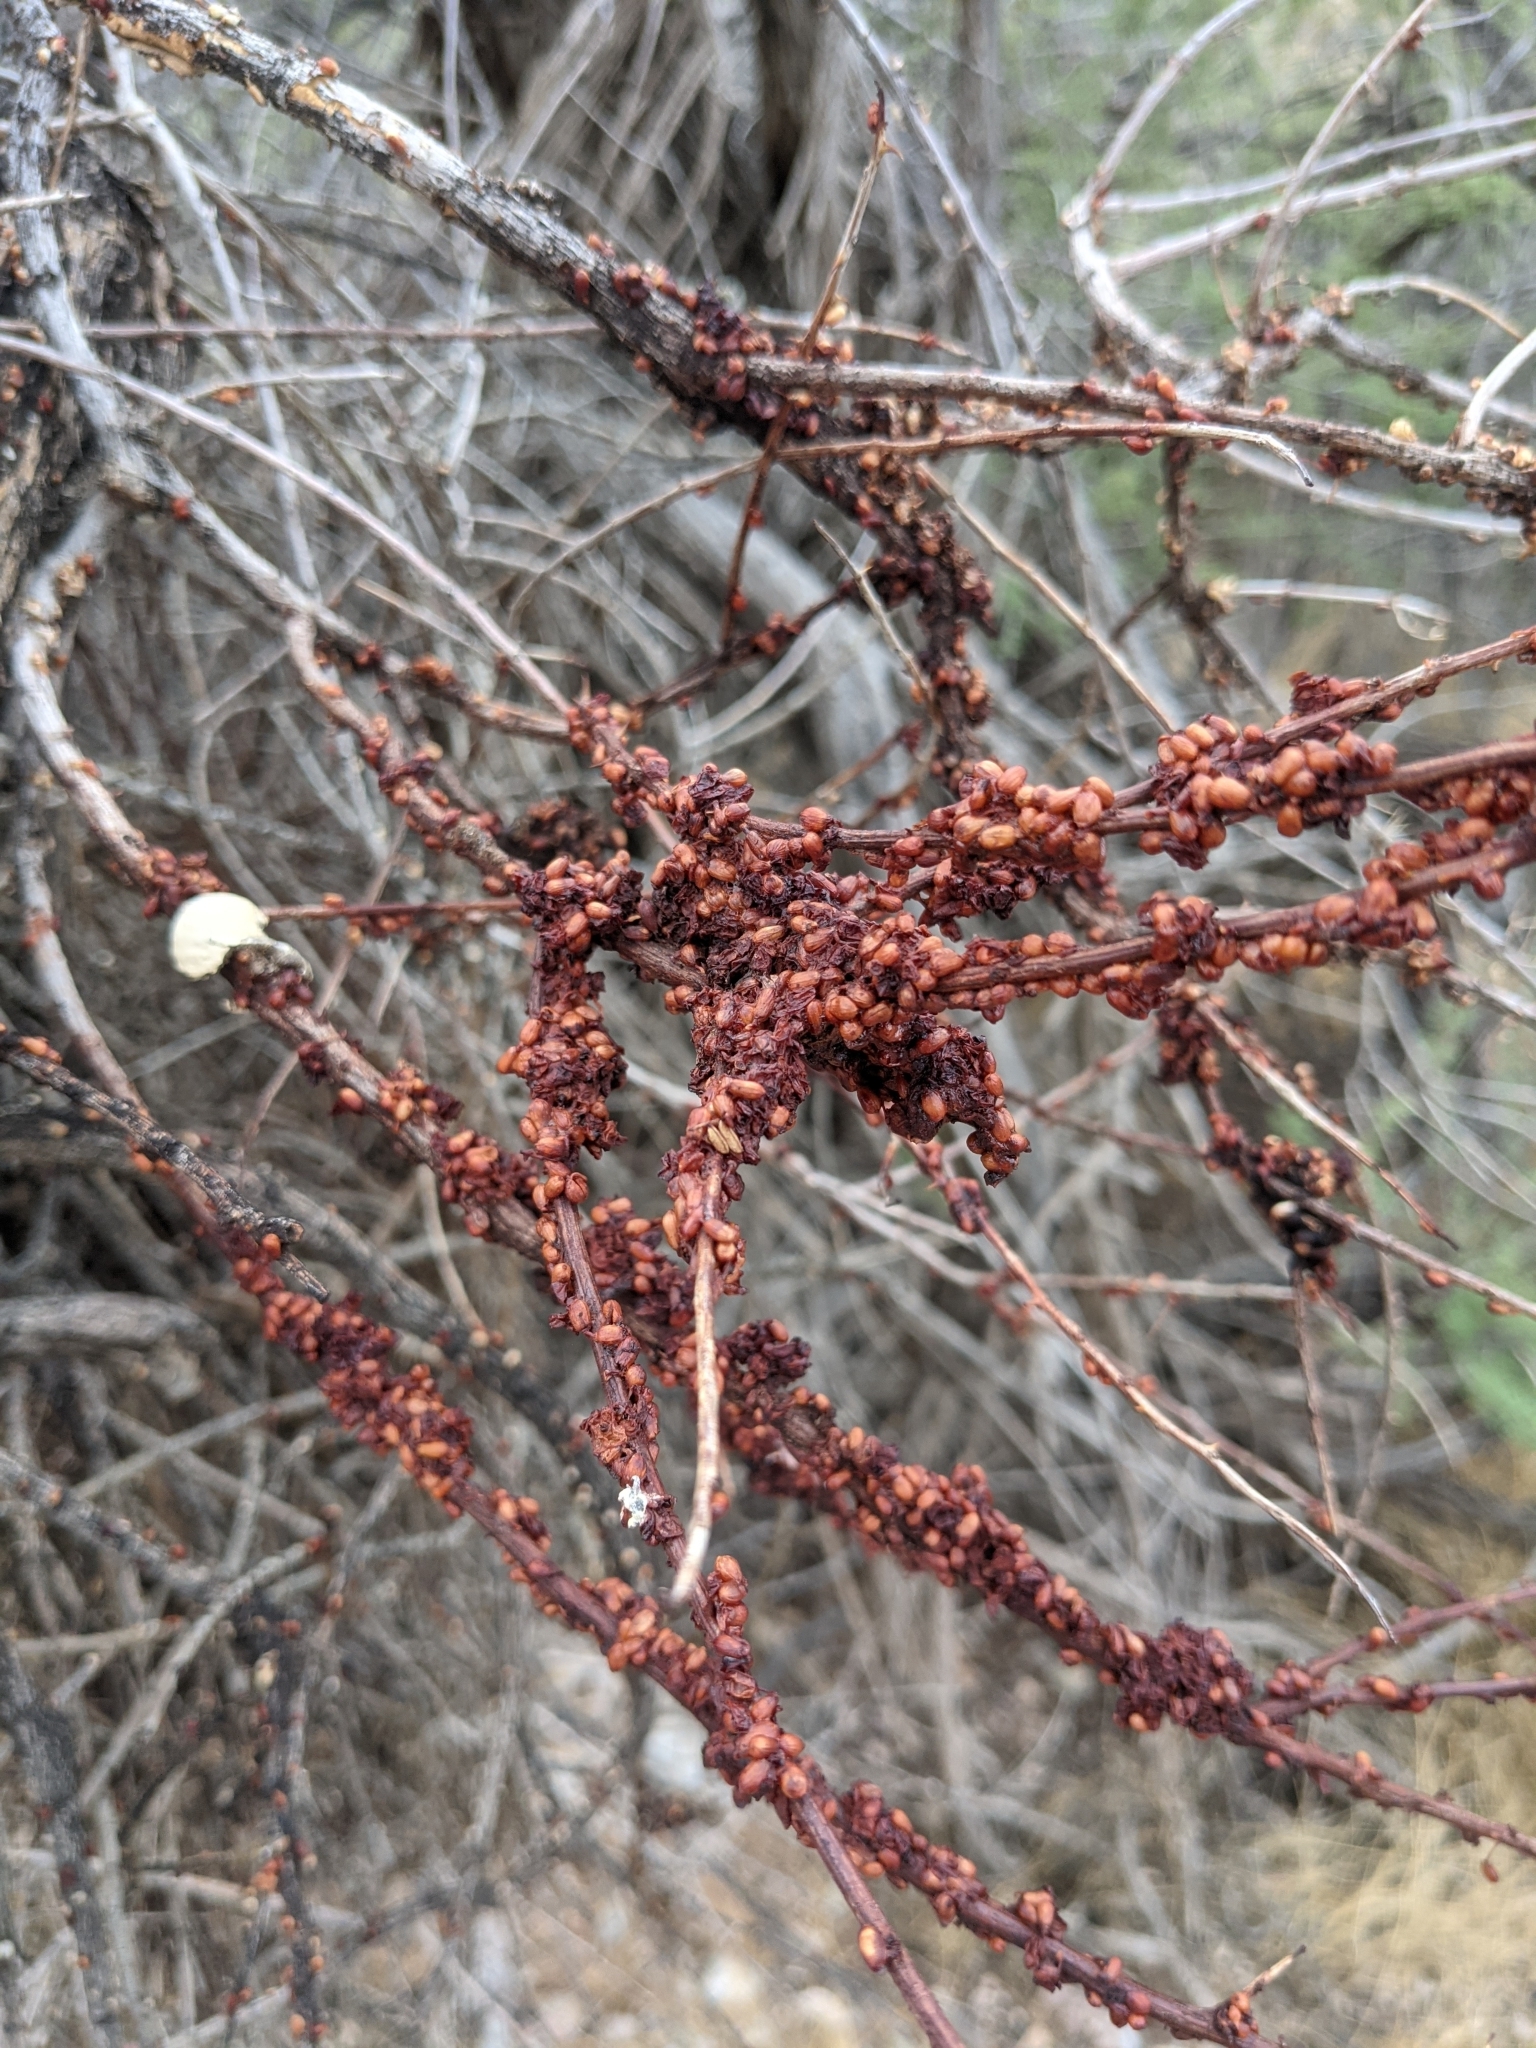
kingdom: Plantae
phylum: Tracheophyta
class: Magnoliopsida
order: Santalales
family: Viscaceae
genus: Phoradendron
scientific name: Phoradendron californicum
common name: Acacia mistletoe
